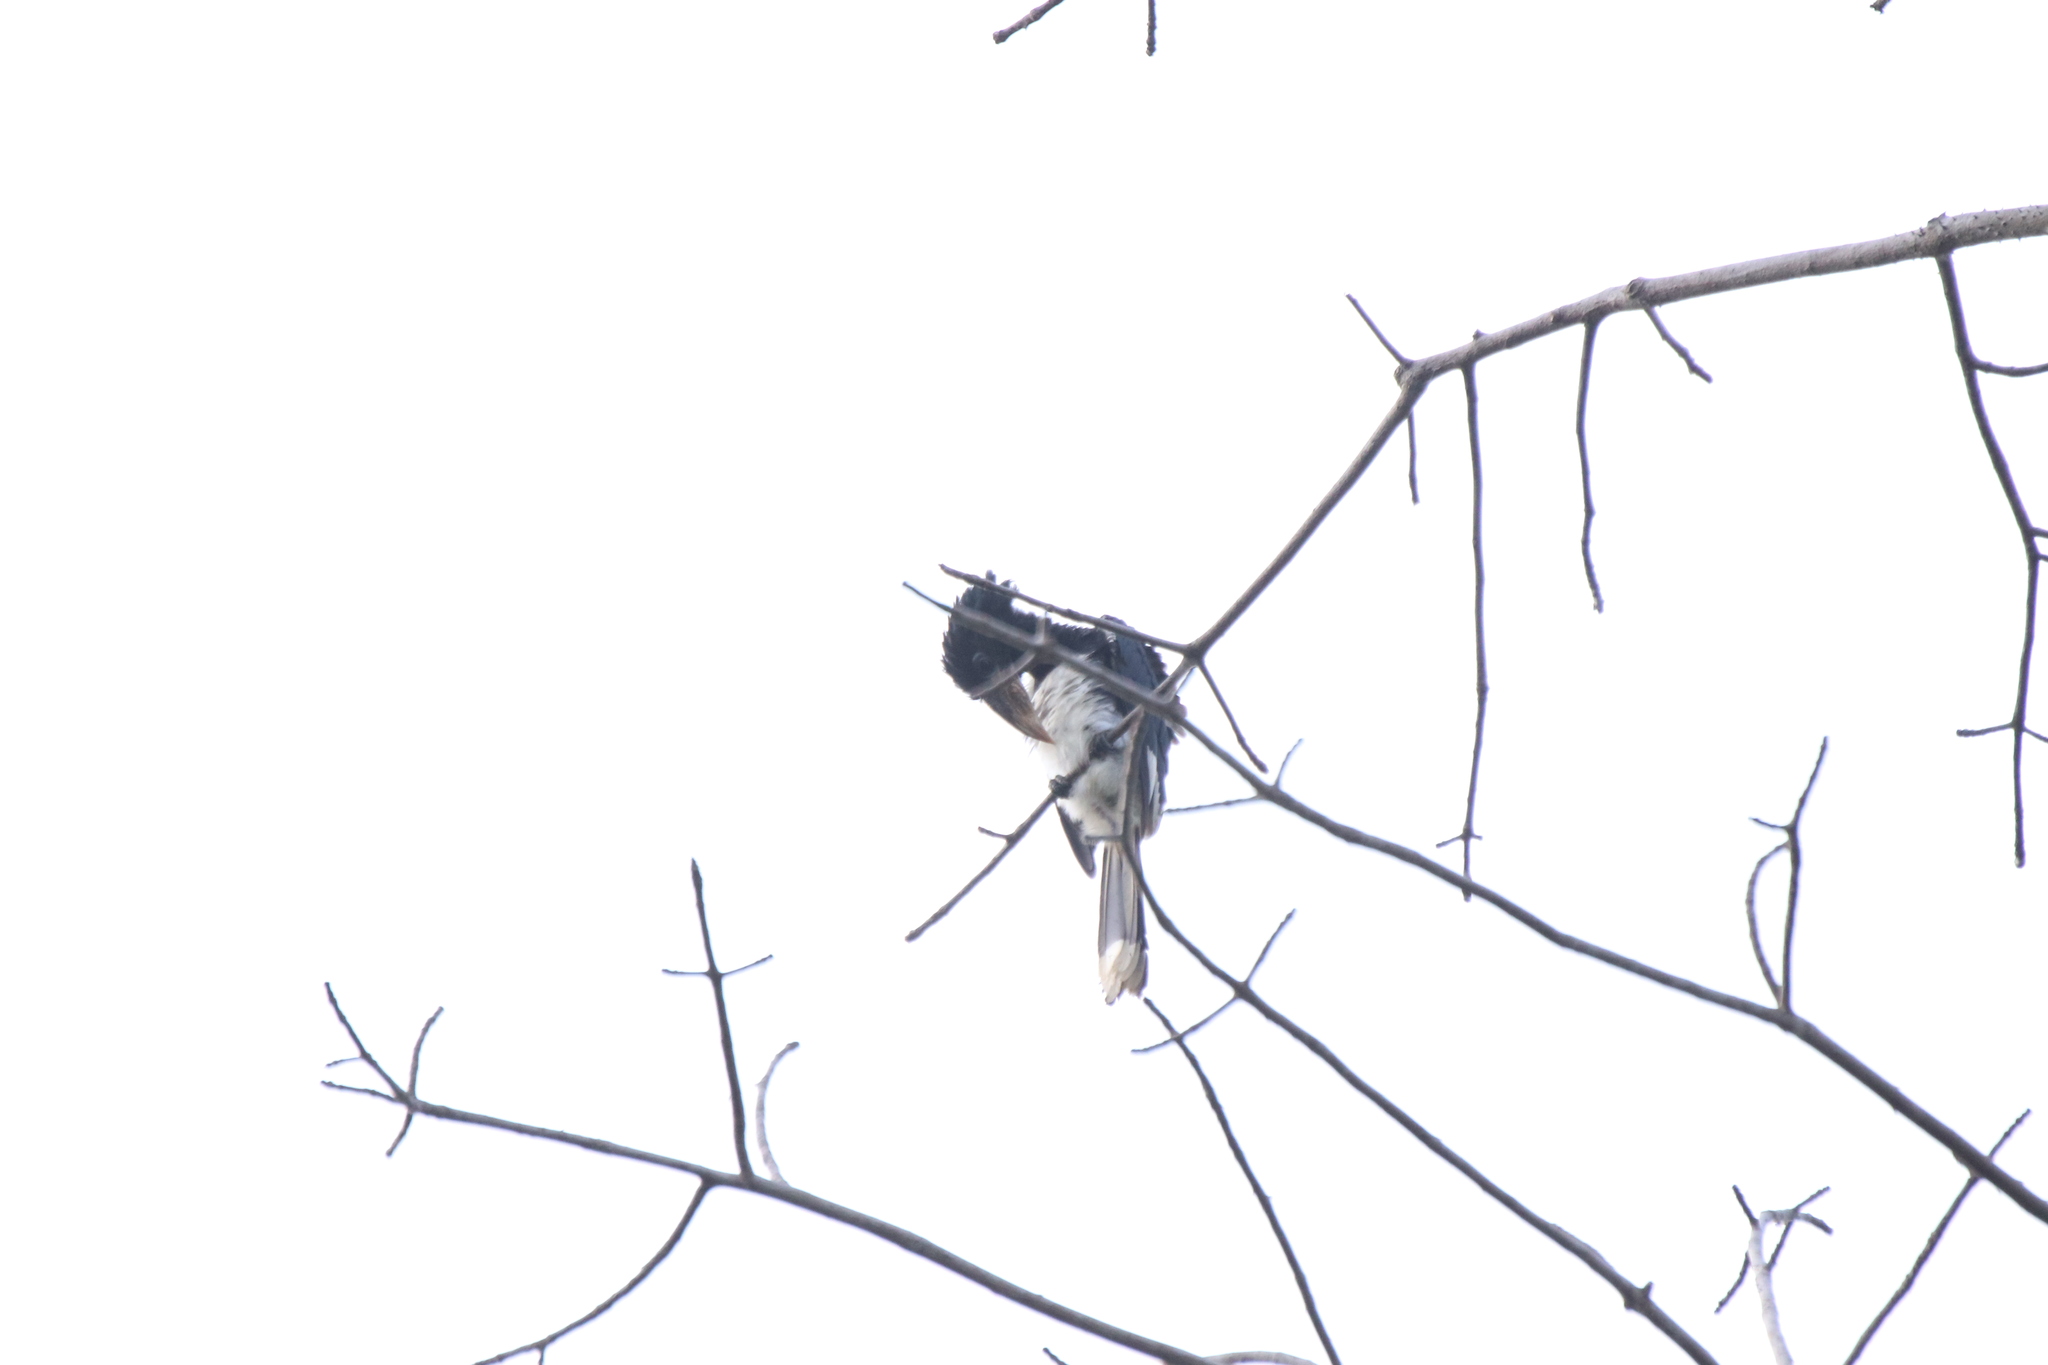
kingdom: Animalia
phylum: Chordata
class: Aves
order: Bucerotiformes
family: Bucerotidae
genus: Bycanistes
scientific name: Bycanistes fistulator
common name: Piping hornbill
